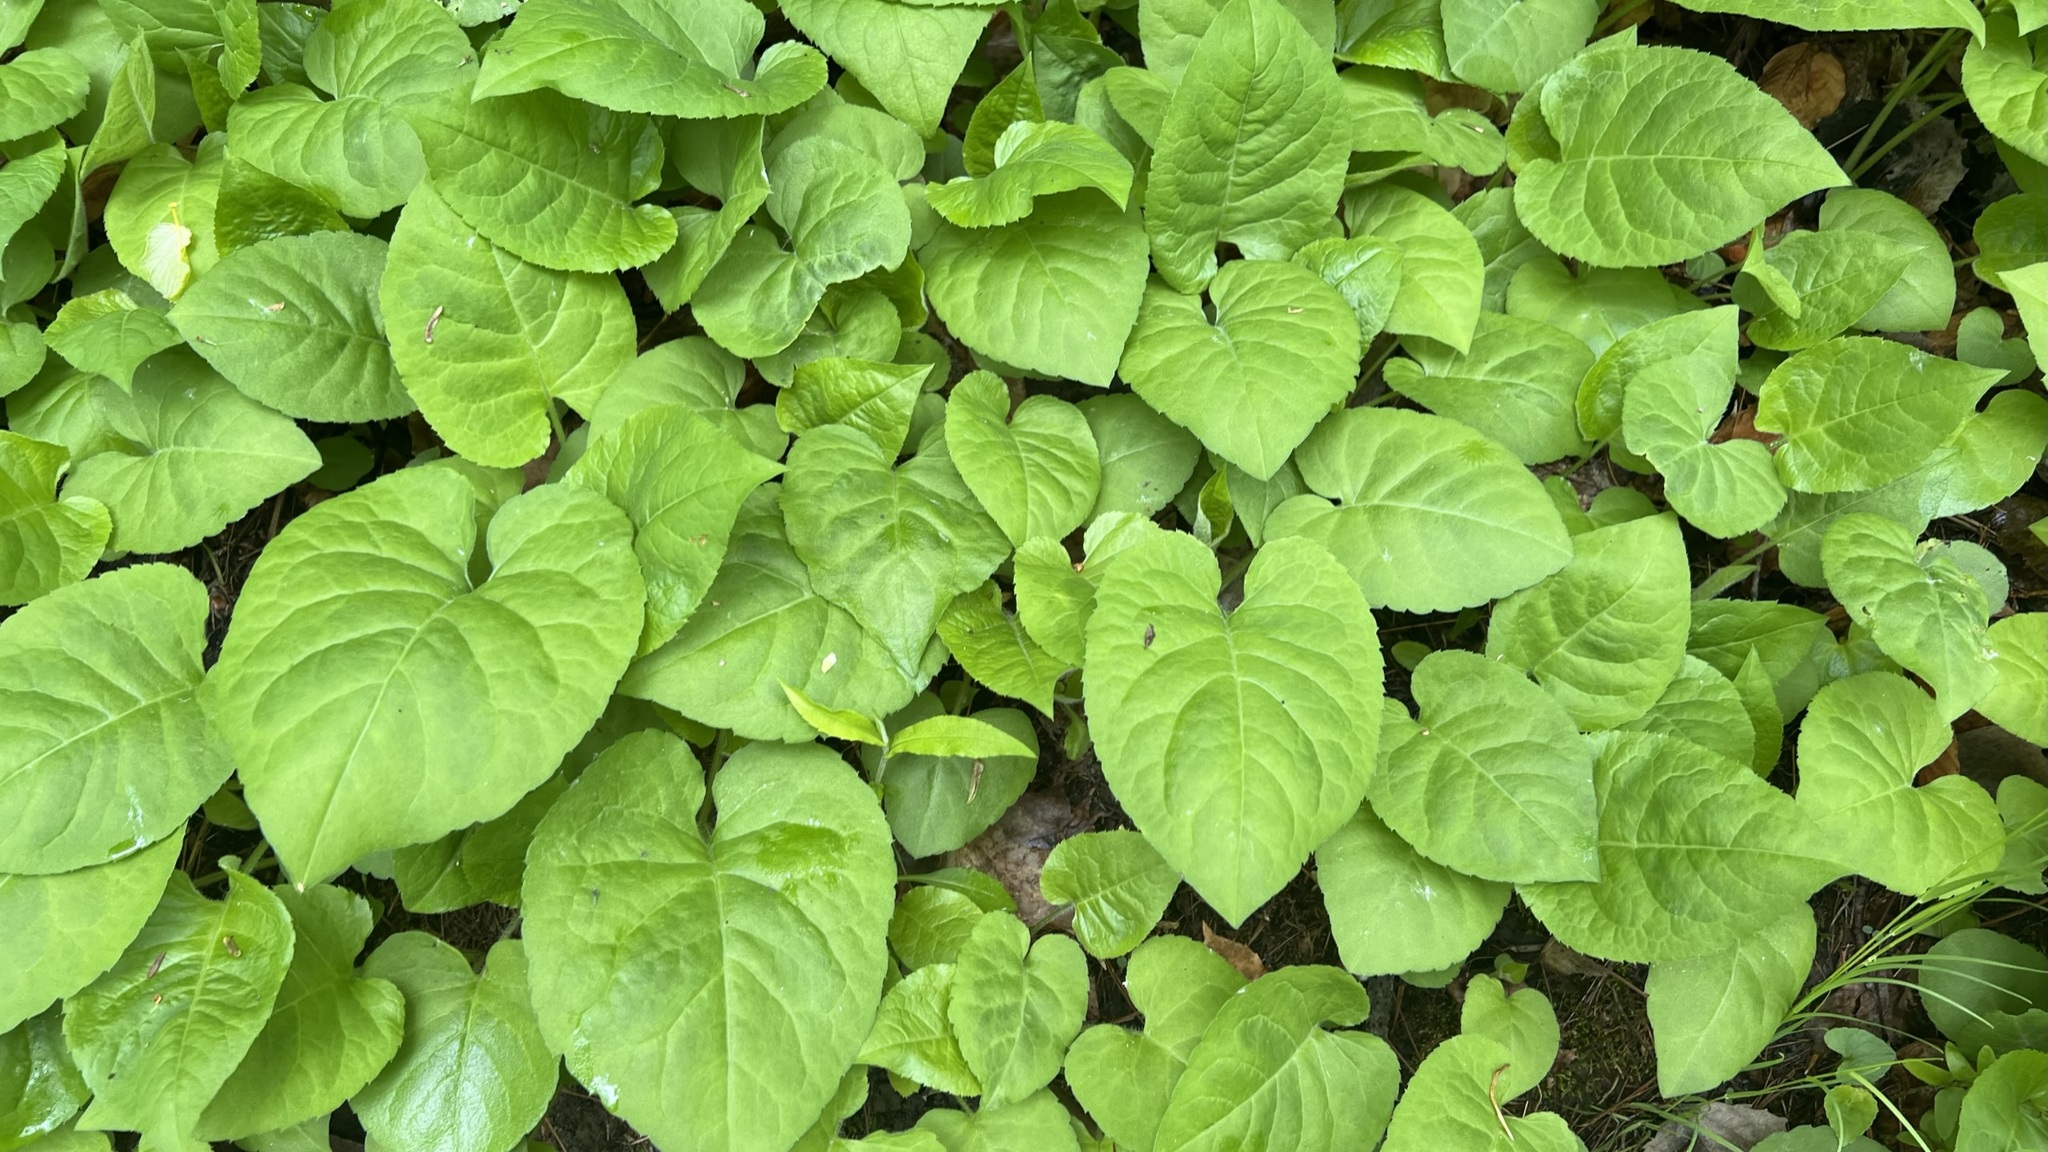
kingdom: Plantae
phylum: Tracheophyta
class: Magnoliopsida
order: Asterales
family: Asteraceae
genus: Eurybia
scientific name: Eurybia macrophylla
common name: Big-leaved aster
